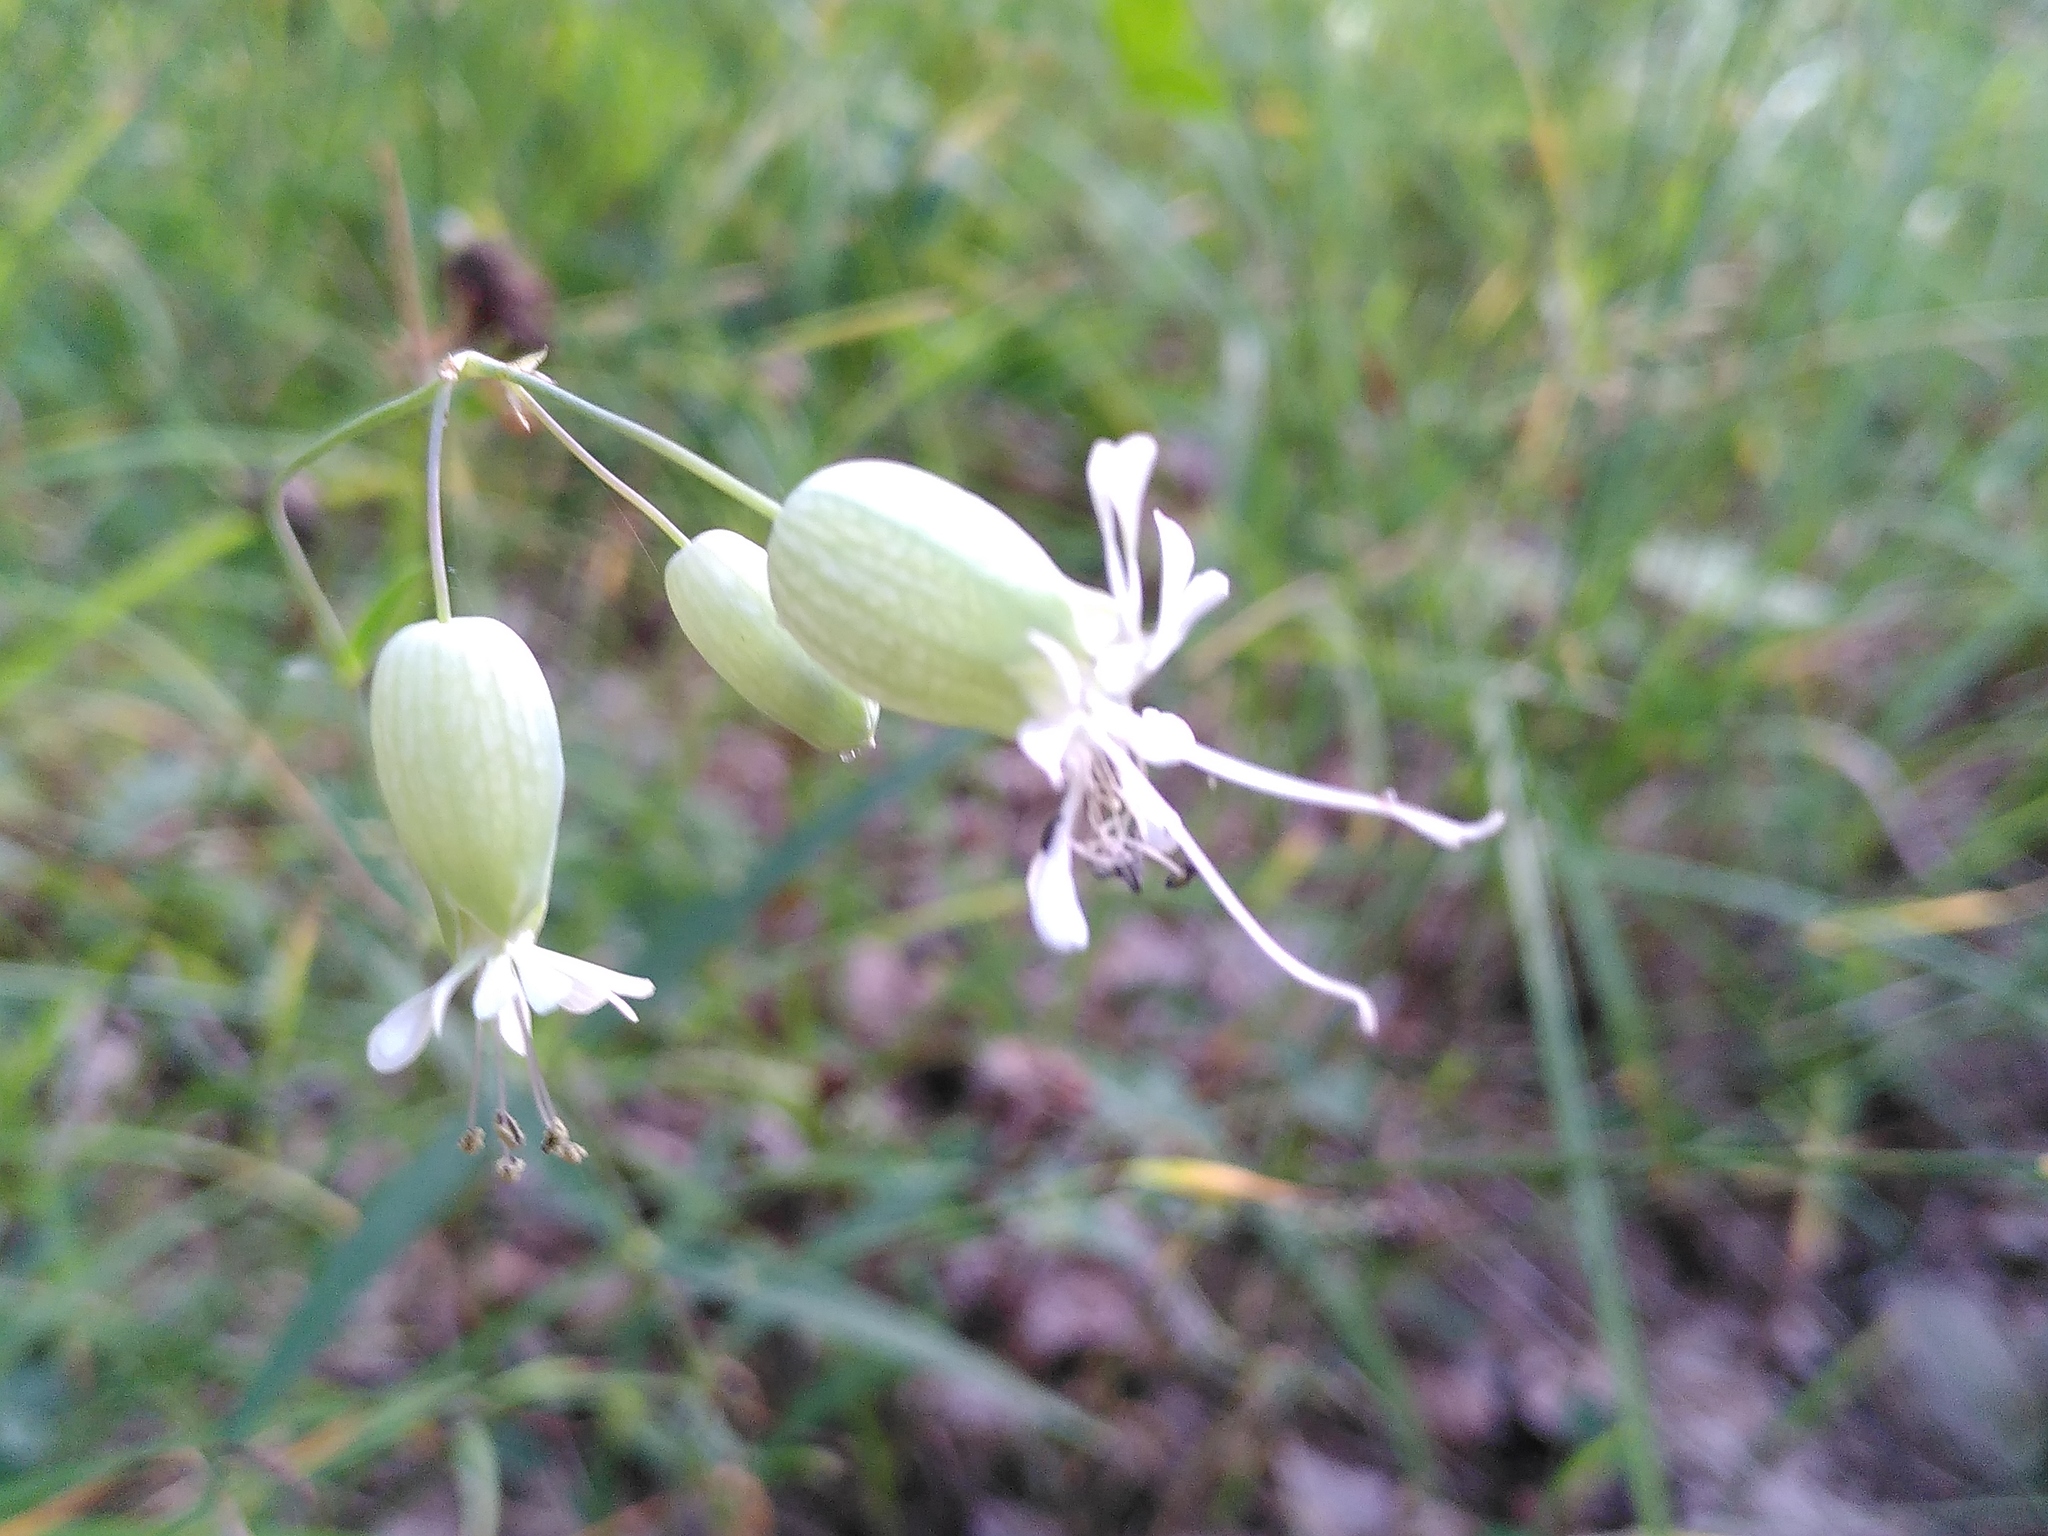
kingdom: Plantae
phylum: Tracheophyta
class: Magnoliopsida
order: Caryophyllales
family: Caryophyllaceae
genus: Silene
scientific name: Silene vulgaris
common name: Bladder campion
